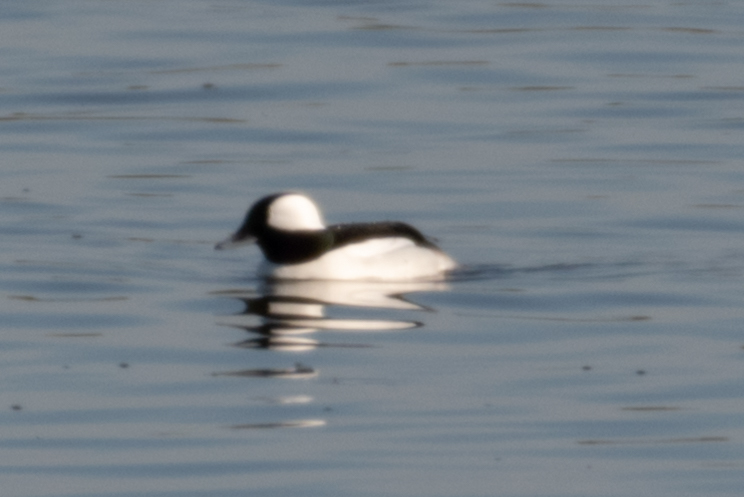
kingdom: Animalia
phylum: Chordata
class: Aves
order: Anseriformes
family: Anatidae
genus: Bucephala
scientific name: Bucephala albeola
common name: Bufflehead
